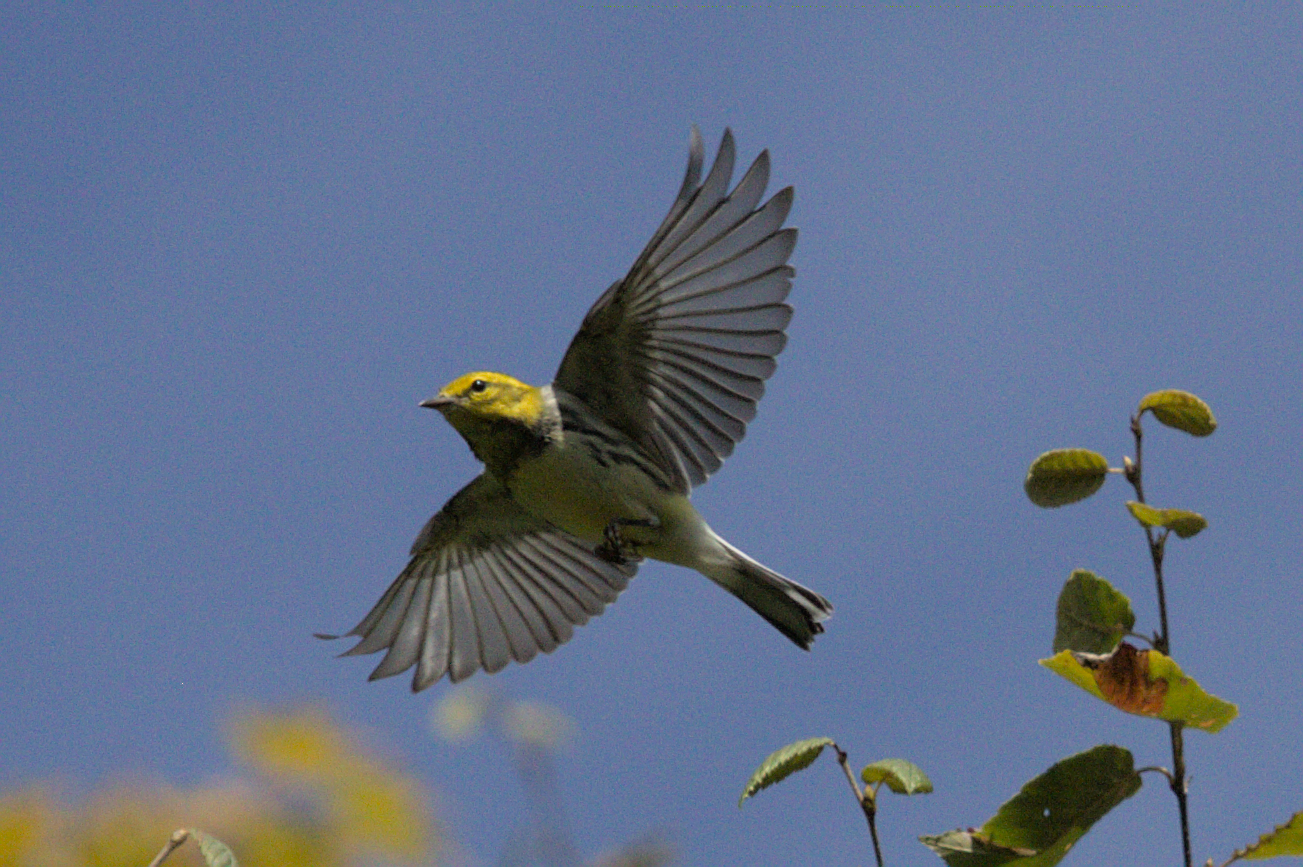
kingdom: Animalia
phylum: Chordata
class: Aves
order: Passeriformes
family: Parulidae
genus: Setophaga
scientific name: Setophaga virens
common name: Black-throated green warbler
